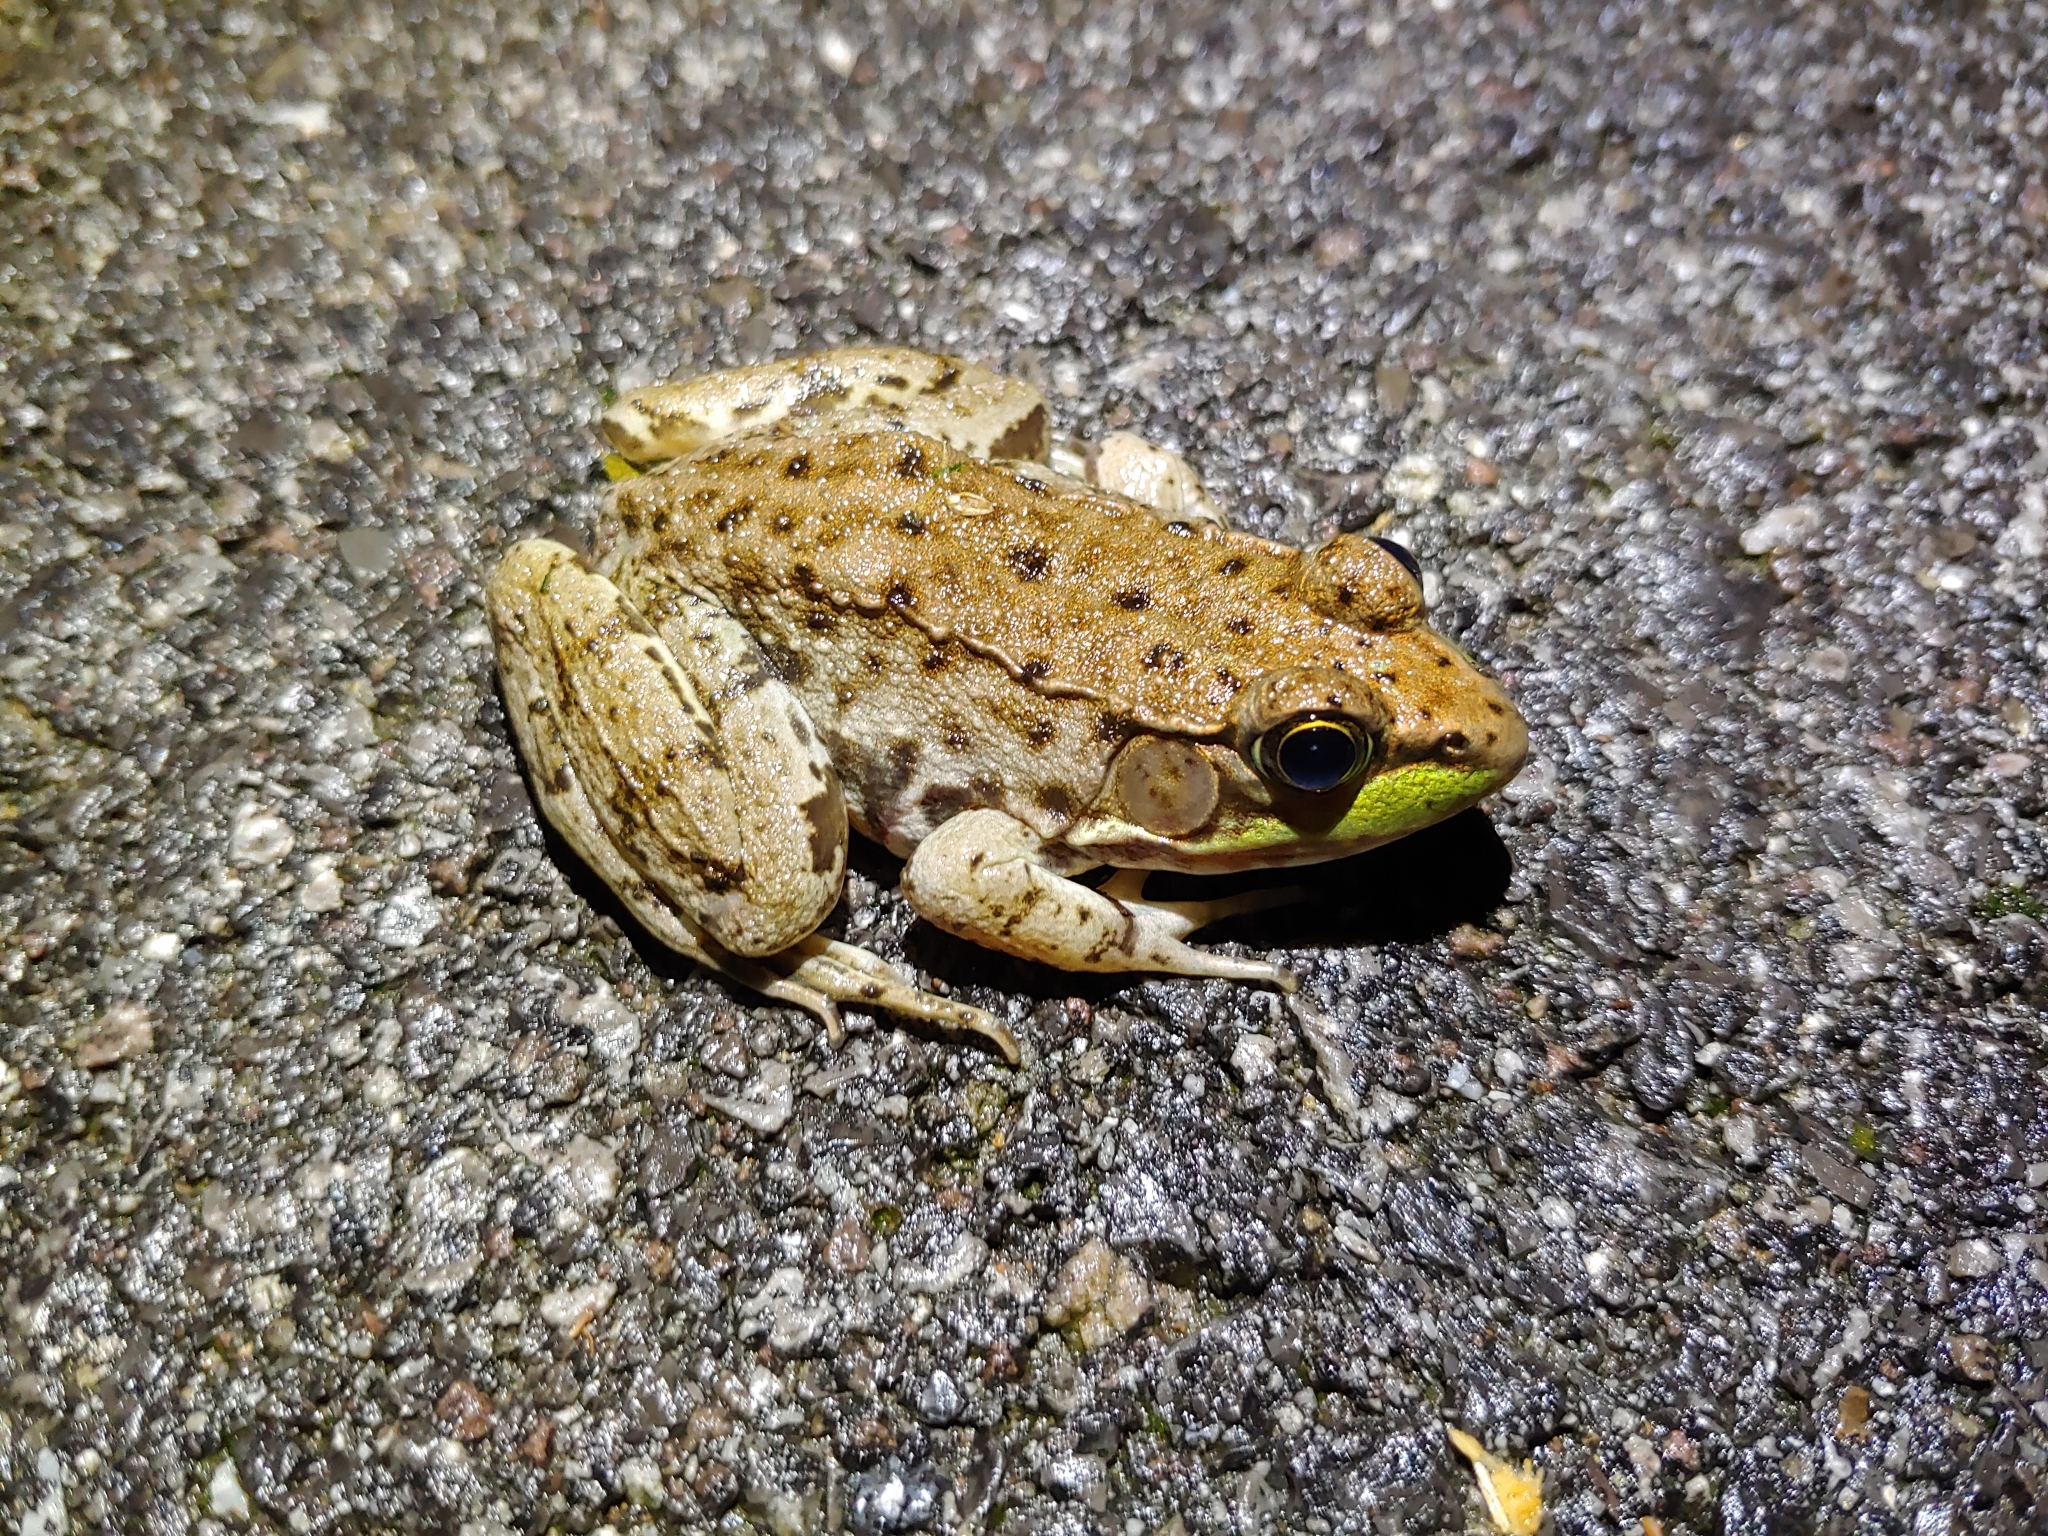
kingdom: Animalia
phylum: Chordata
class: Amphibia
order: Anura
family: Ranidae
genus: Lithobates
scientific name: Lithobates clamitans
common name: Green frog
